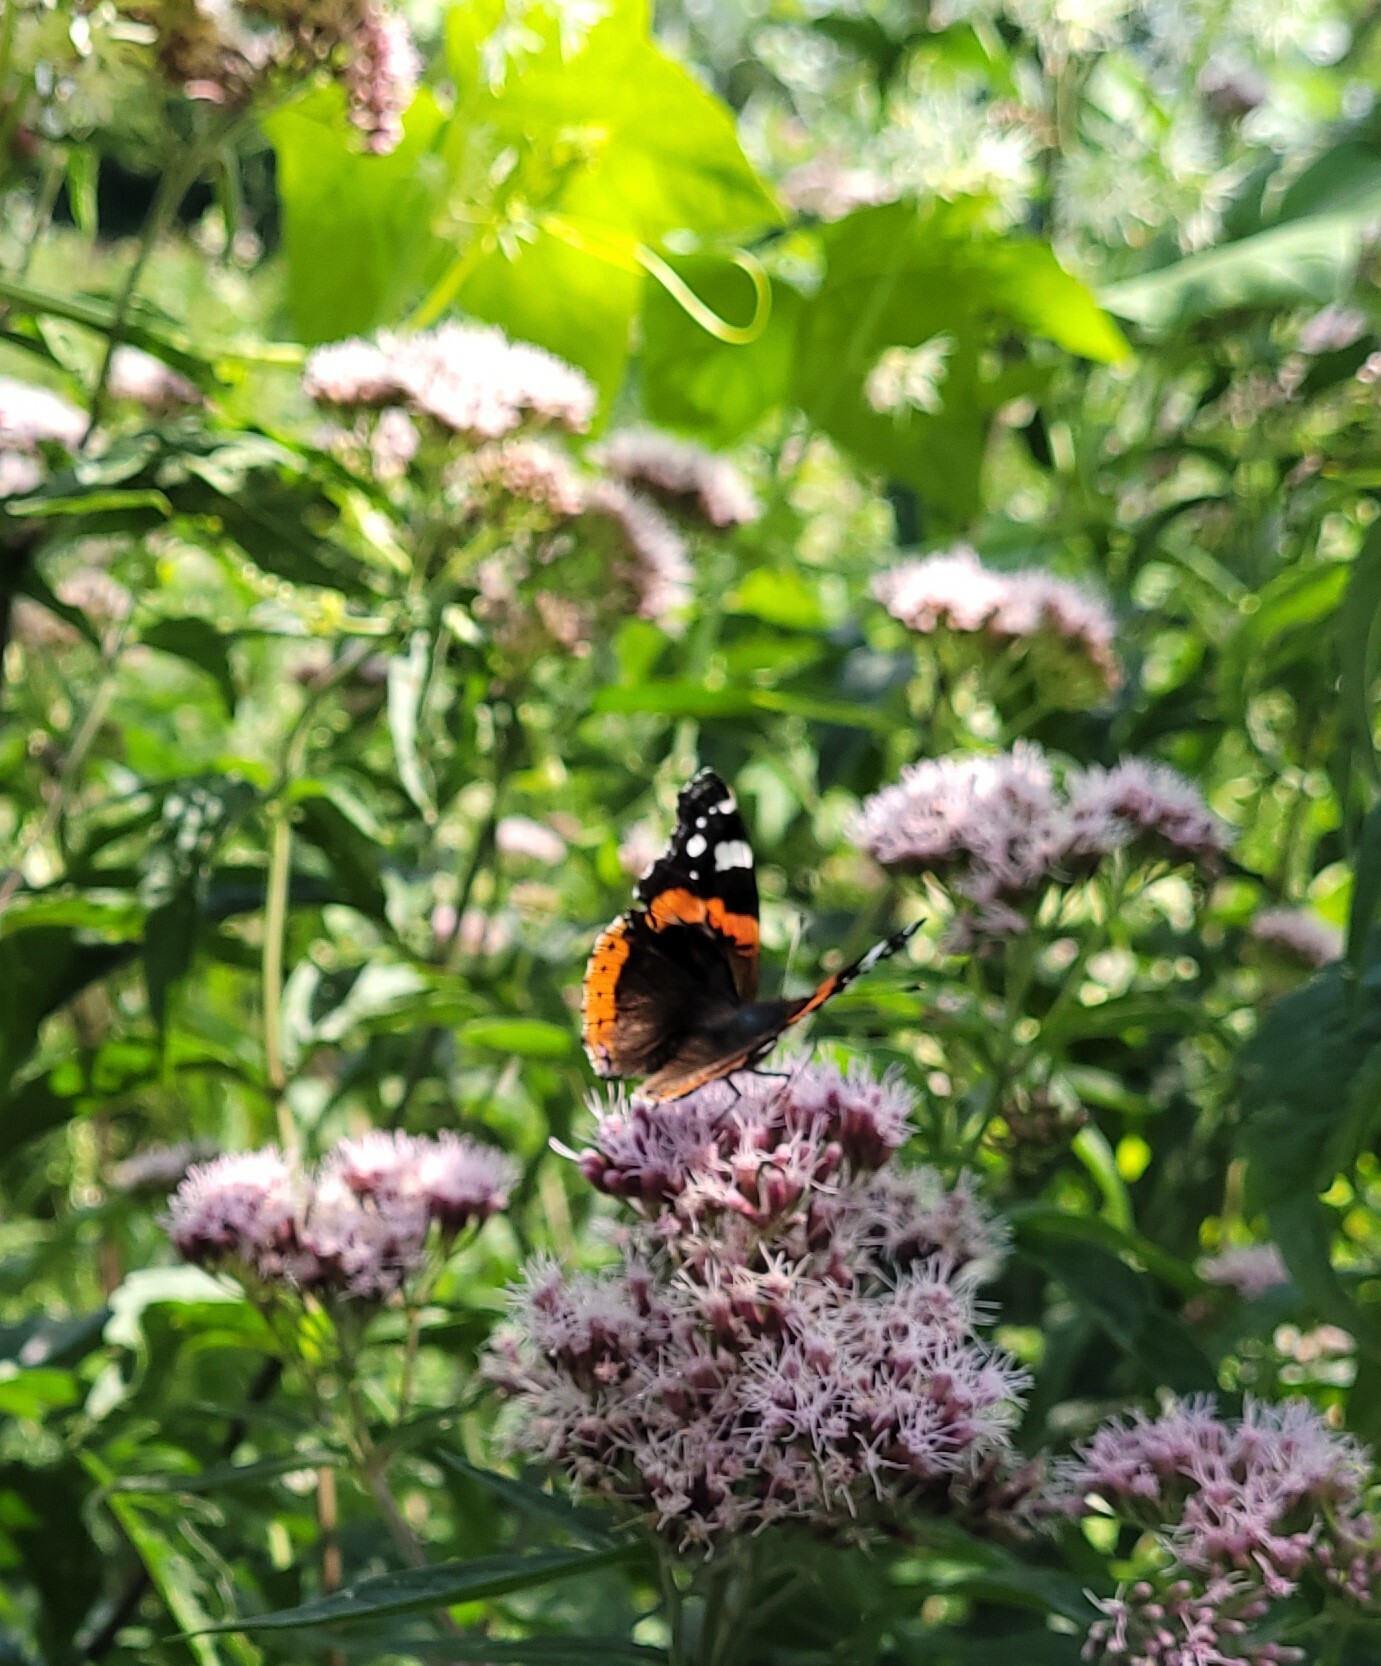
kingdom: Animalia
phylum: Arthropoda
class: Insecta
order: Lepidoptera
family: Nymphalidae
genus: Vanessa
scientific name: Vanessa atalanta
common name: Red admiral
